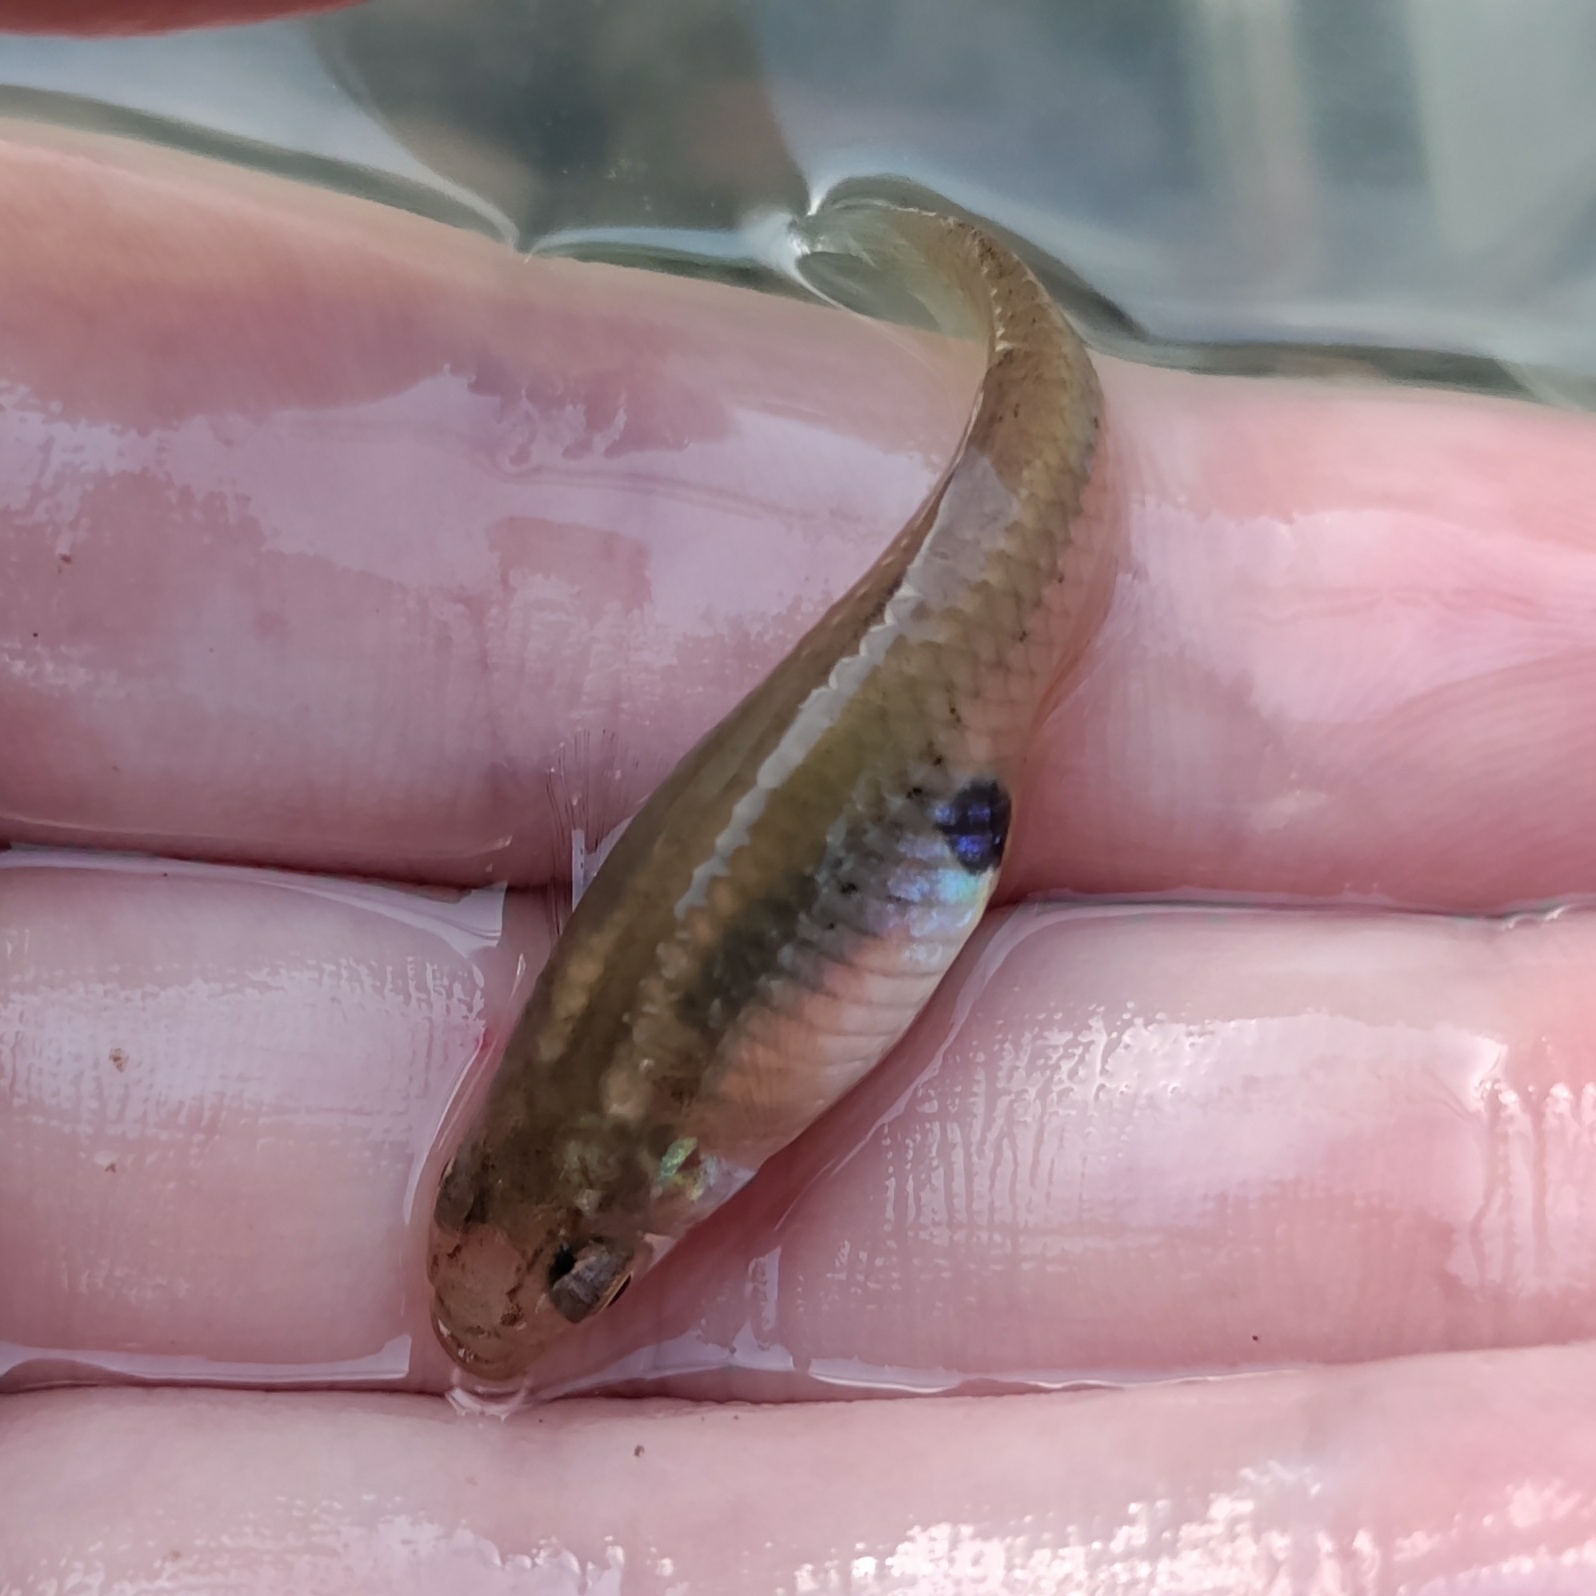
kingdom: Animalia
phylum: Chordata
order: Cyprinodontiformes
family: Poeciliidae
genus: Gambusia
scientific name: Gambusia affinis
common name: Mosquitofish
